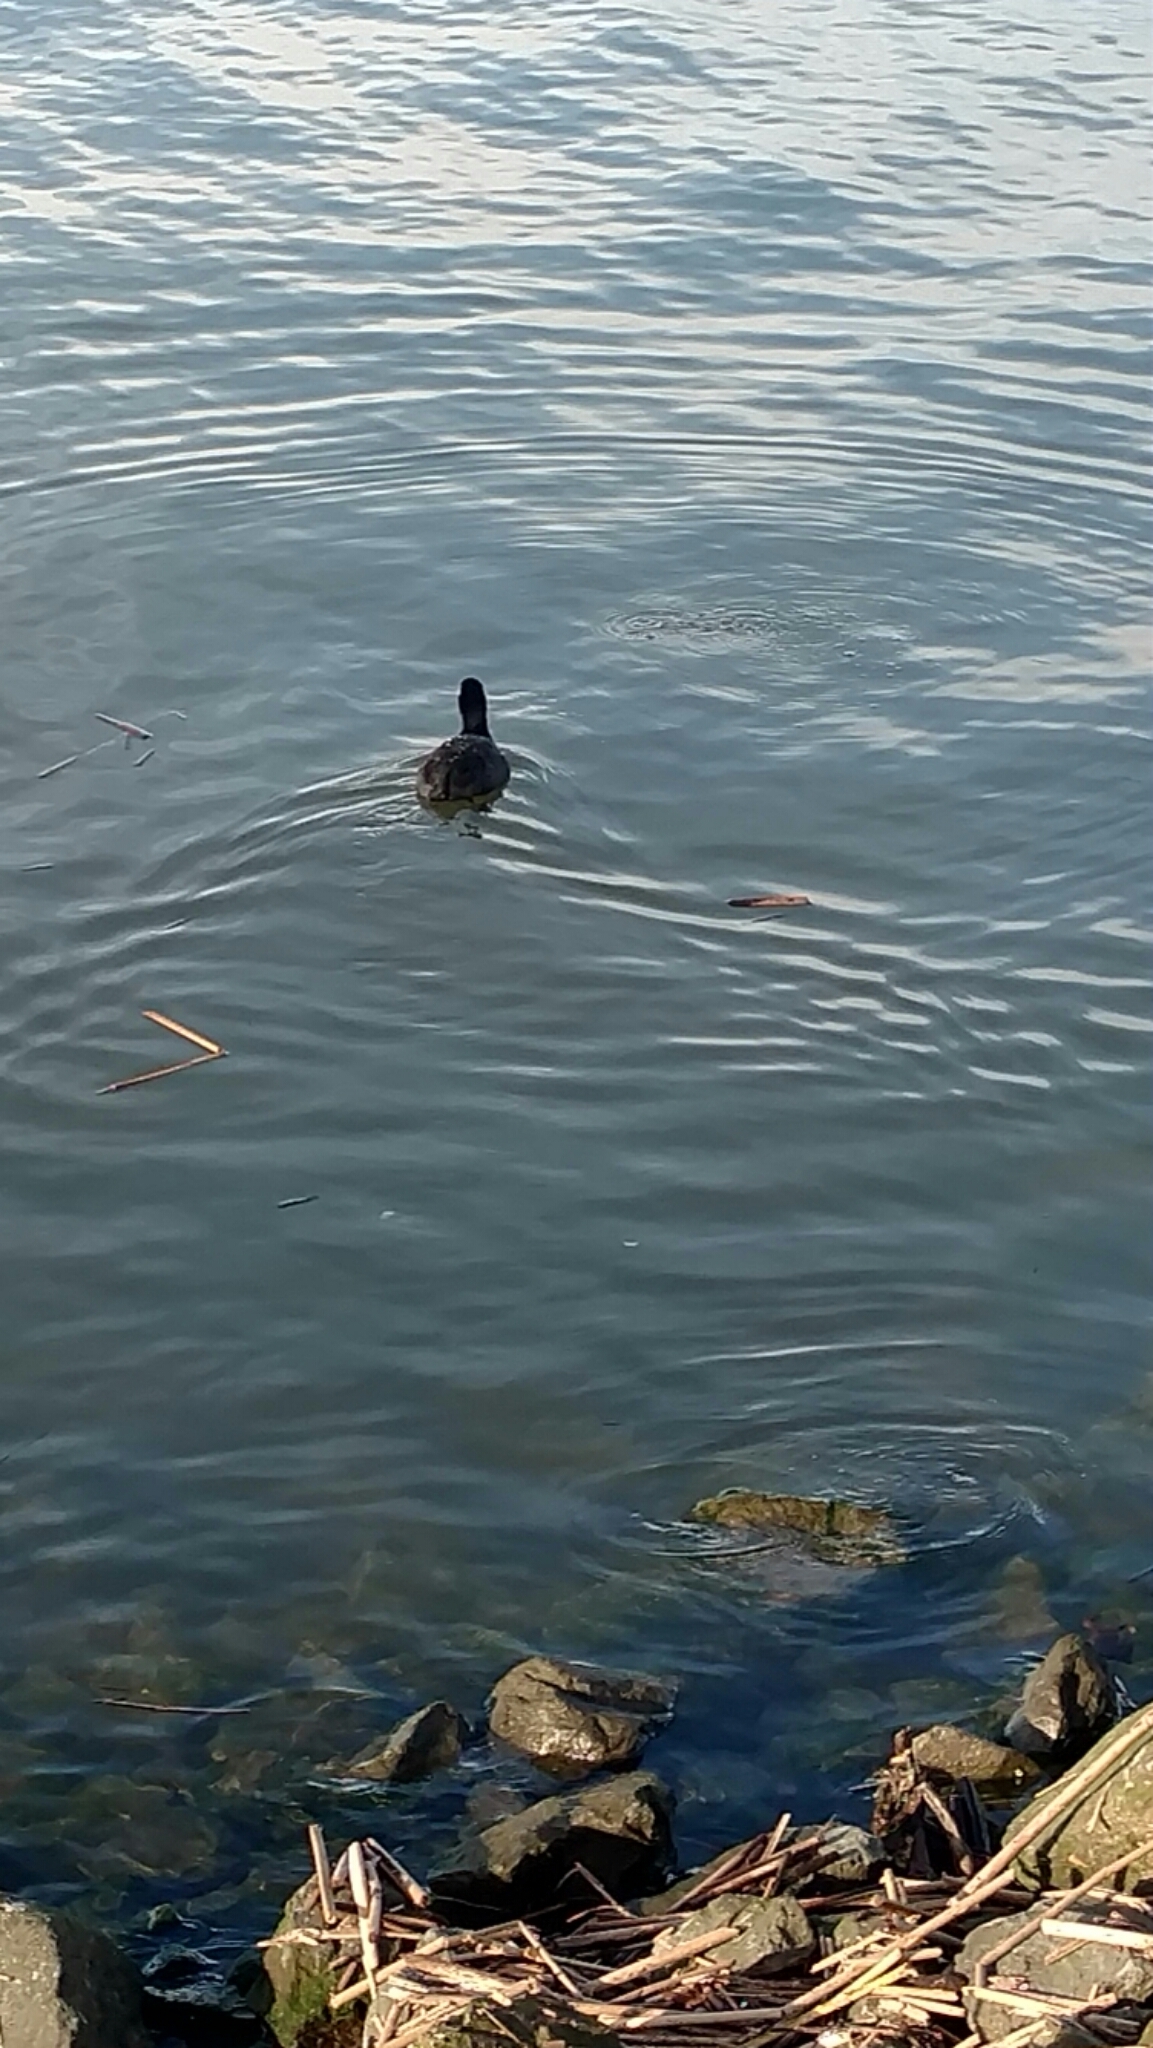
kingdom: Animalia
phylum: Chordata
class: Aves
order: Gruiformes
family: Rallidae
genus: Fulica
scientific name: Fulica americana
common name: American coot
